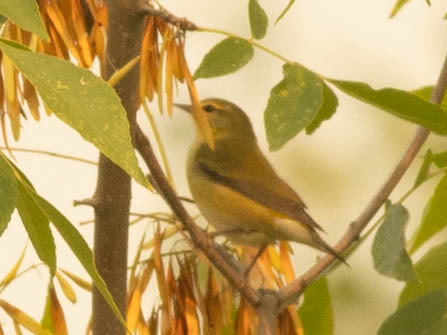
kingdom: Animalia
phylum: Chordata
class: Aves
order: Passeriformes
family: Parulidae
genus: Leiothlypis
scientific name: Leiothlypis peregrina
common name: Tennessee warbler
